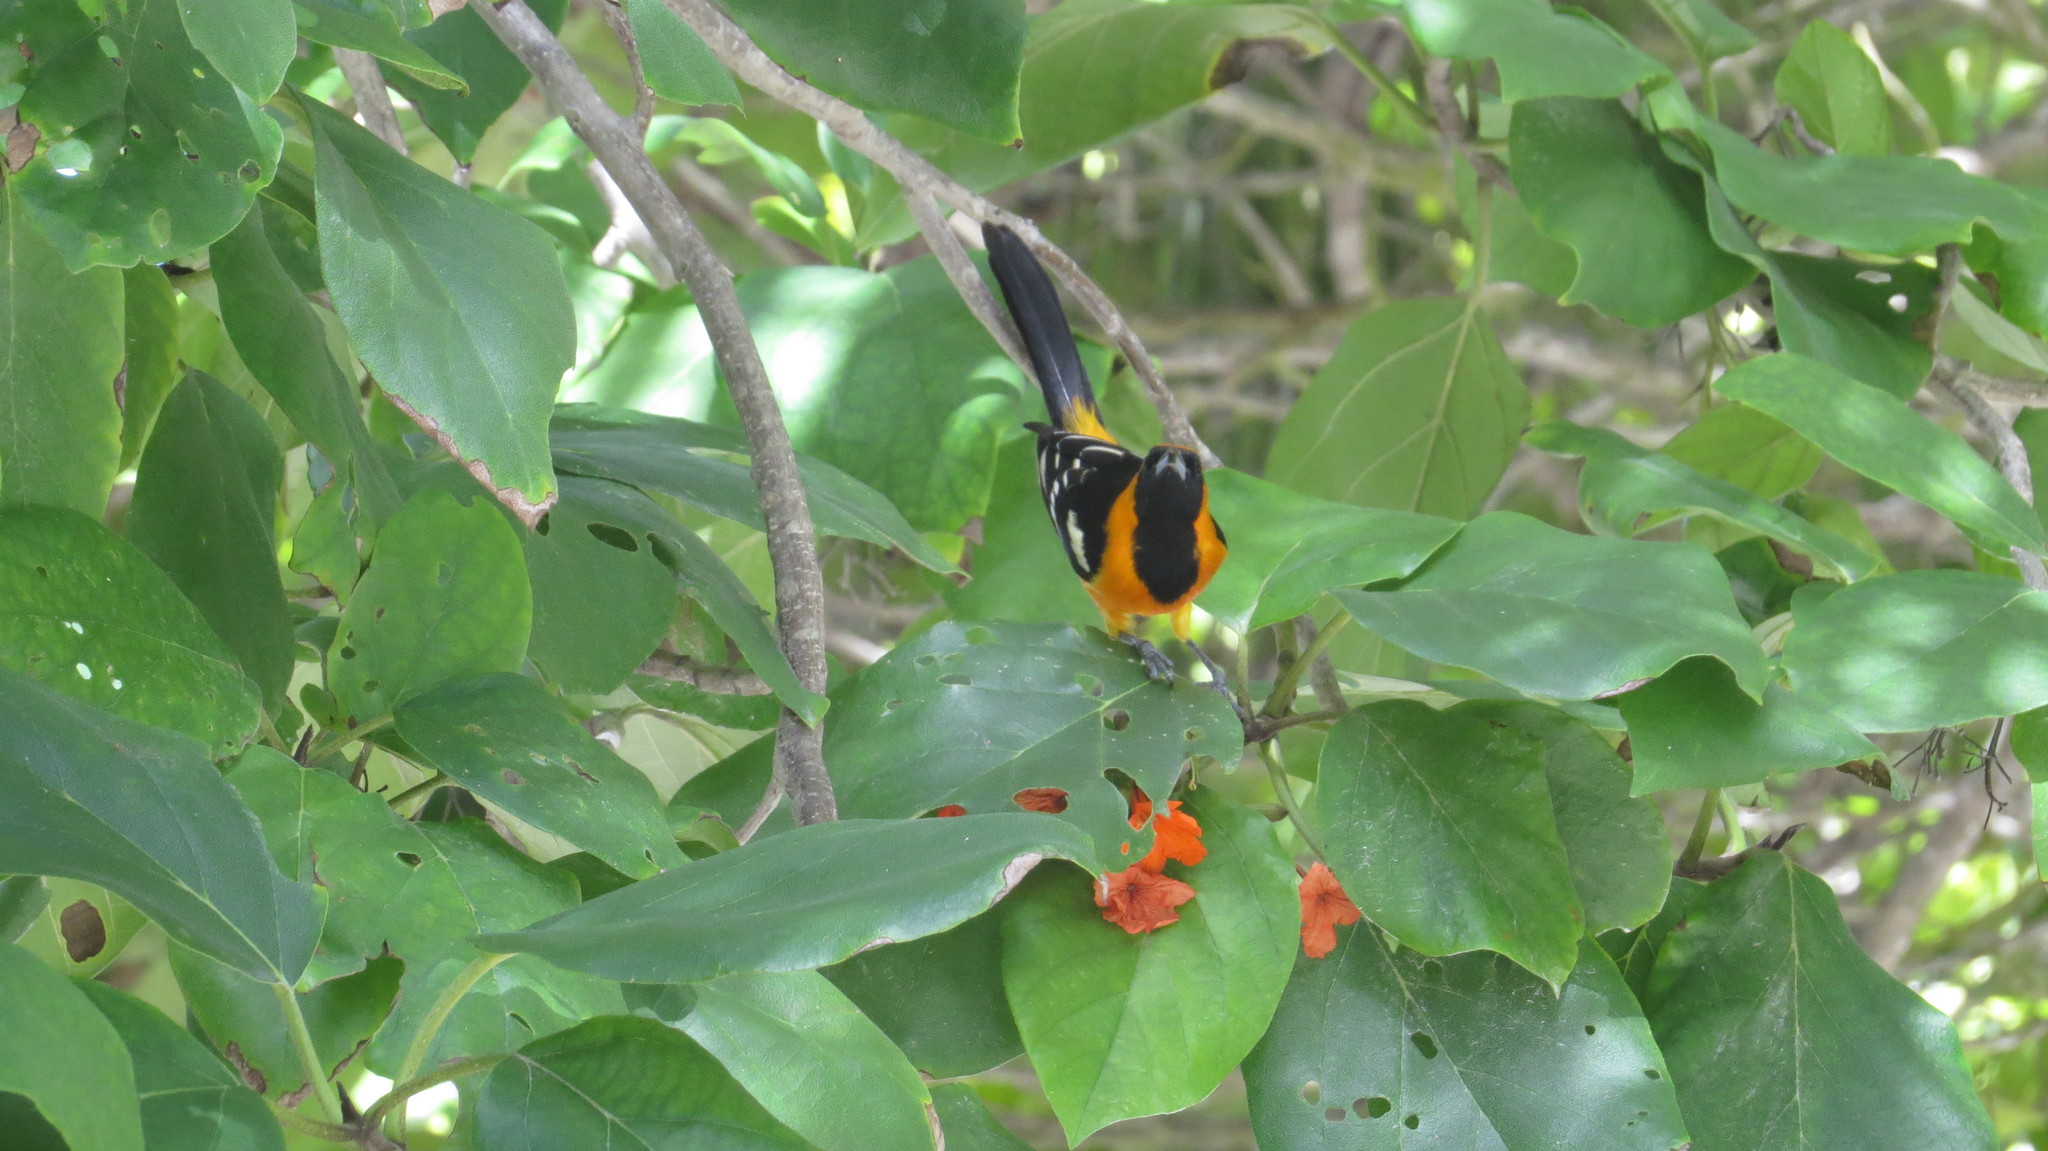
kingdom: Animalia
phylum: Chordata
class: Aves
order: Passeriformes
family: Icteridae
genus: Icterus
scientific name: Icterus cucullatus
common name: Hooded oriole
